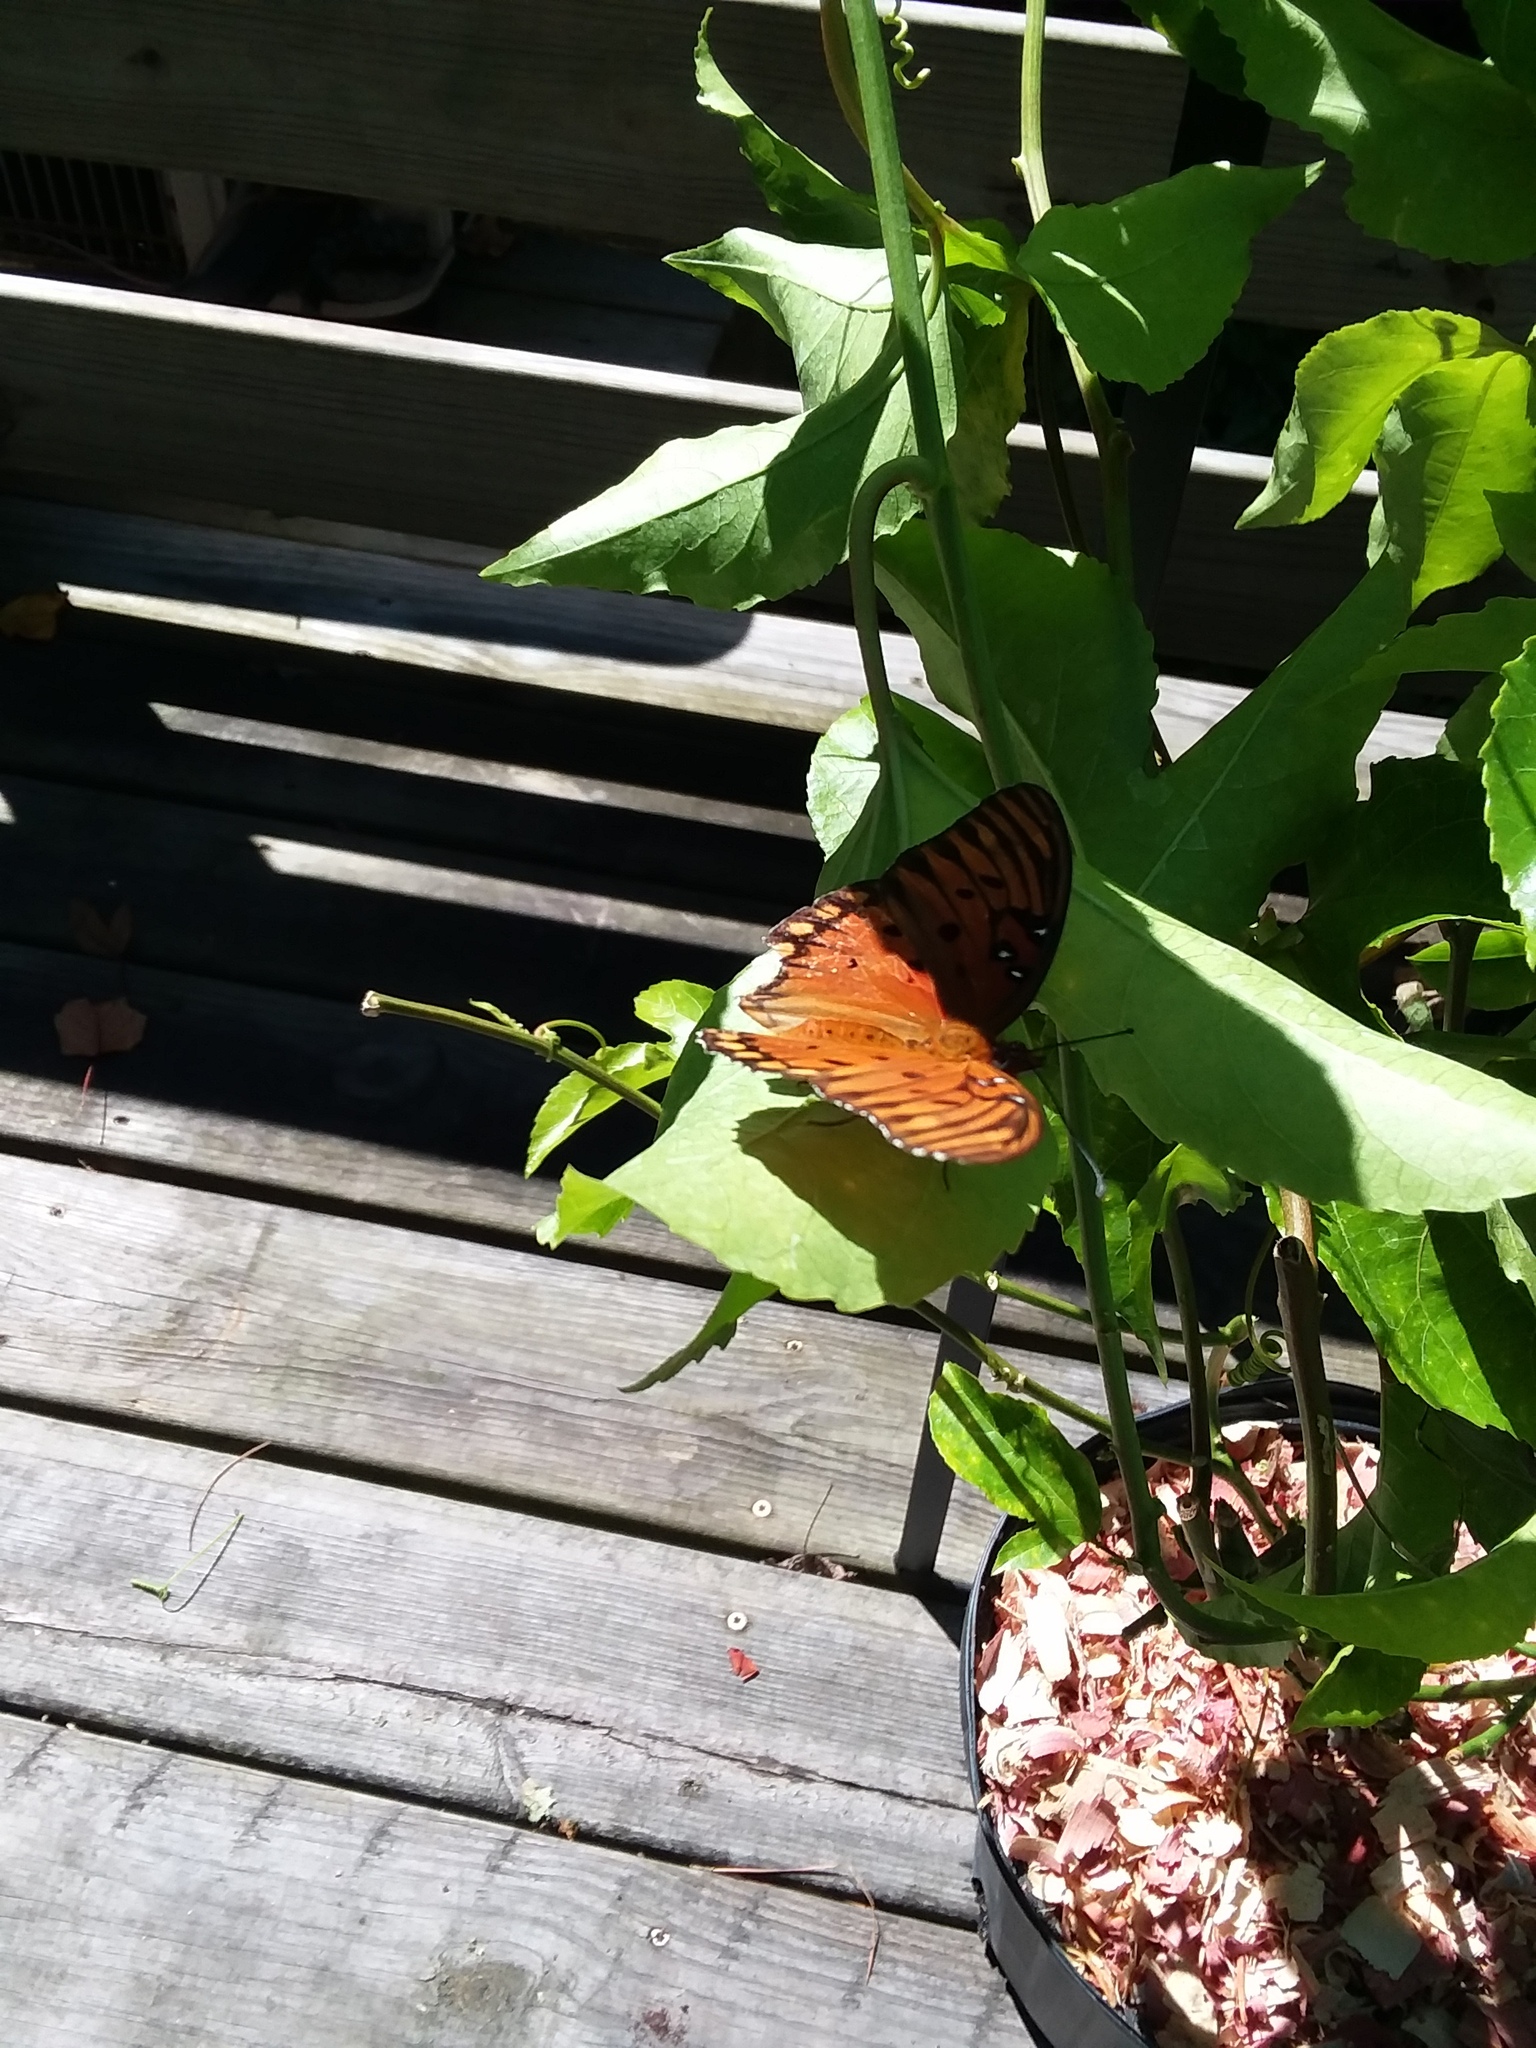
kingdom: Animalia
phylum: Arthropoda
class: Insecta
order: Lepidoptera
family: Nymphalidae
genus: Dione
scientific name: Dione vanillae
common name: Gulf fritillary
